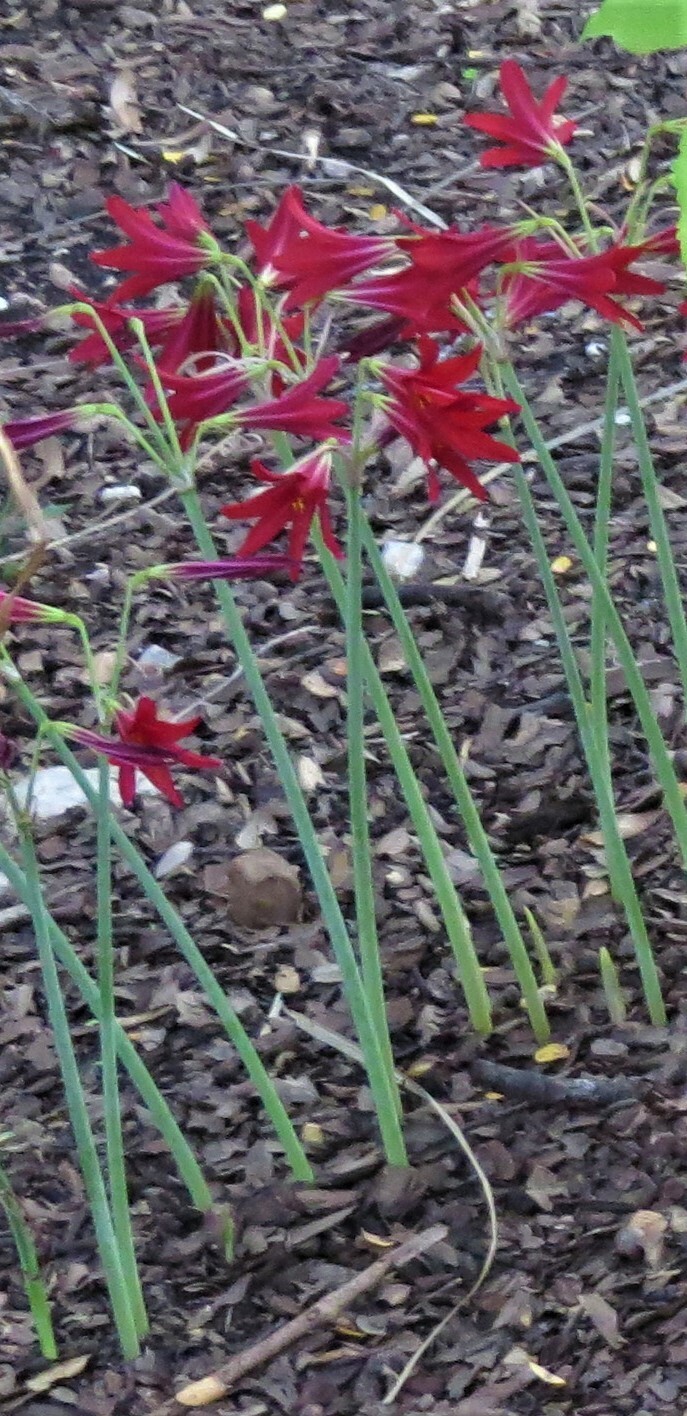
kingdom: Plantae
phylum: Tracheophyta
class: Liliopsida
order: Asparagales
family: Amaryllidaceae
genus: Zephyranthes
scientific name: Zephyranthes bifida
